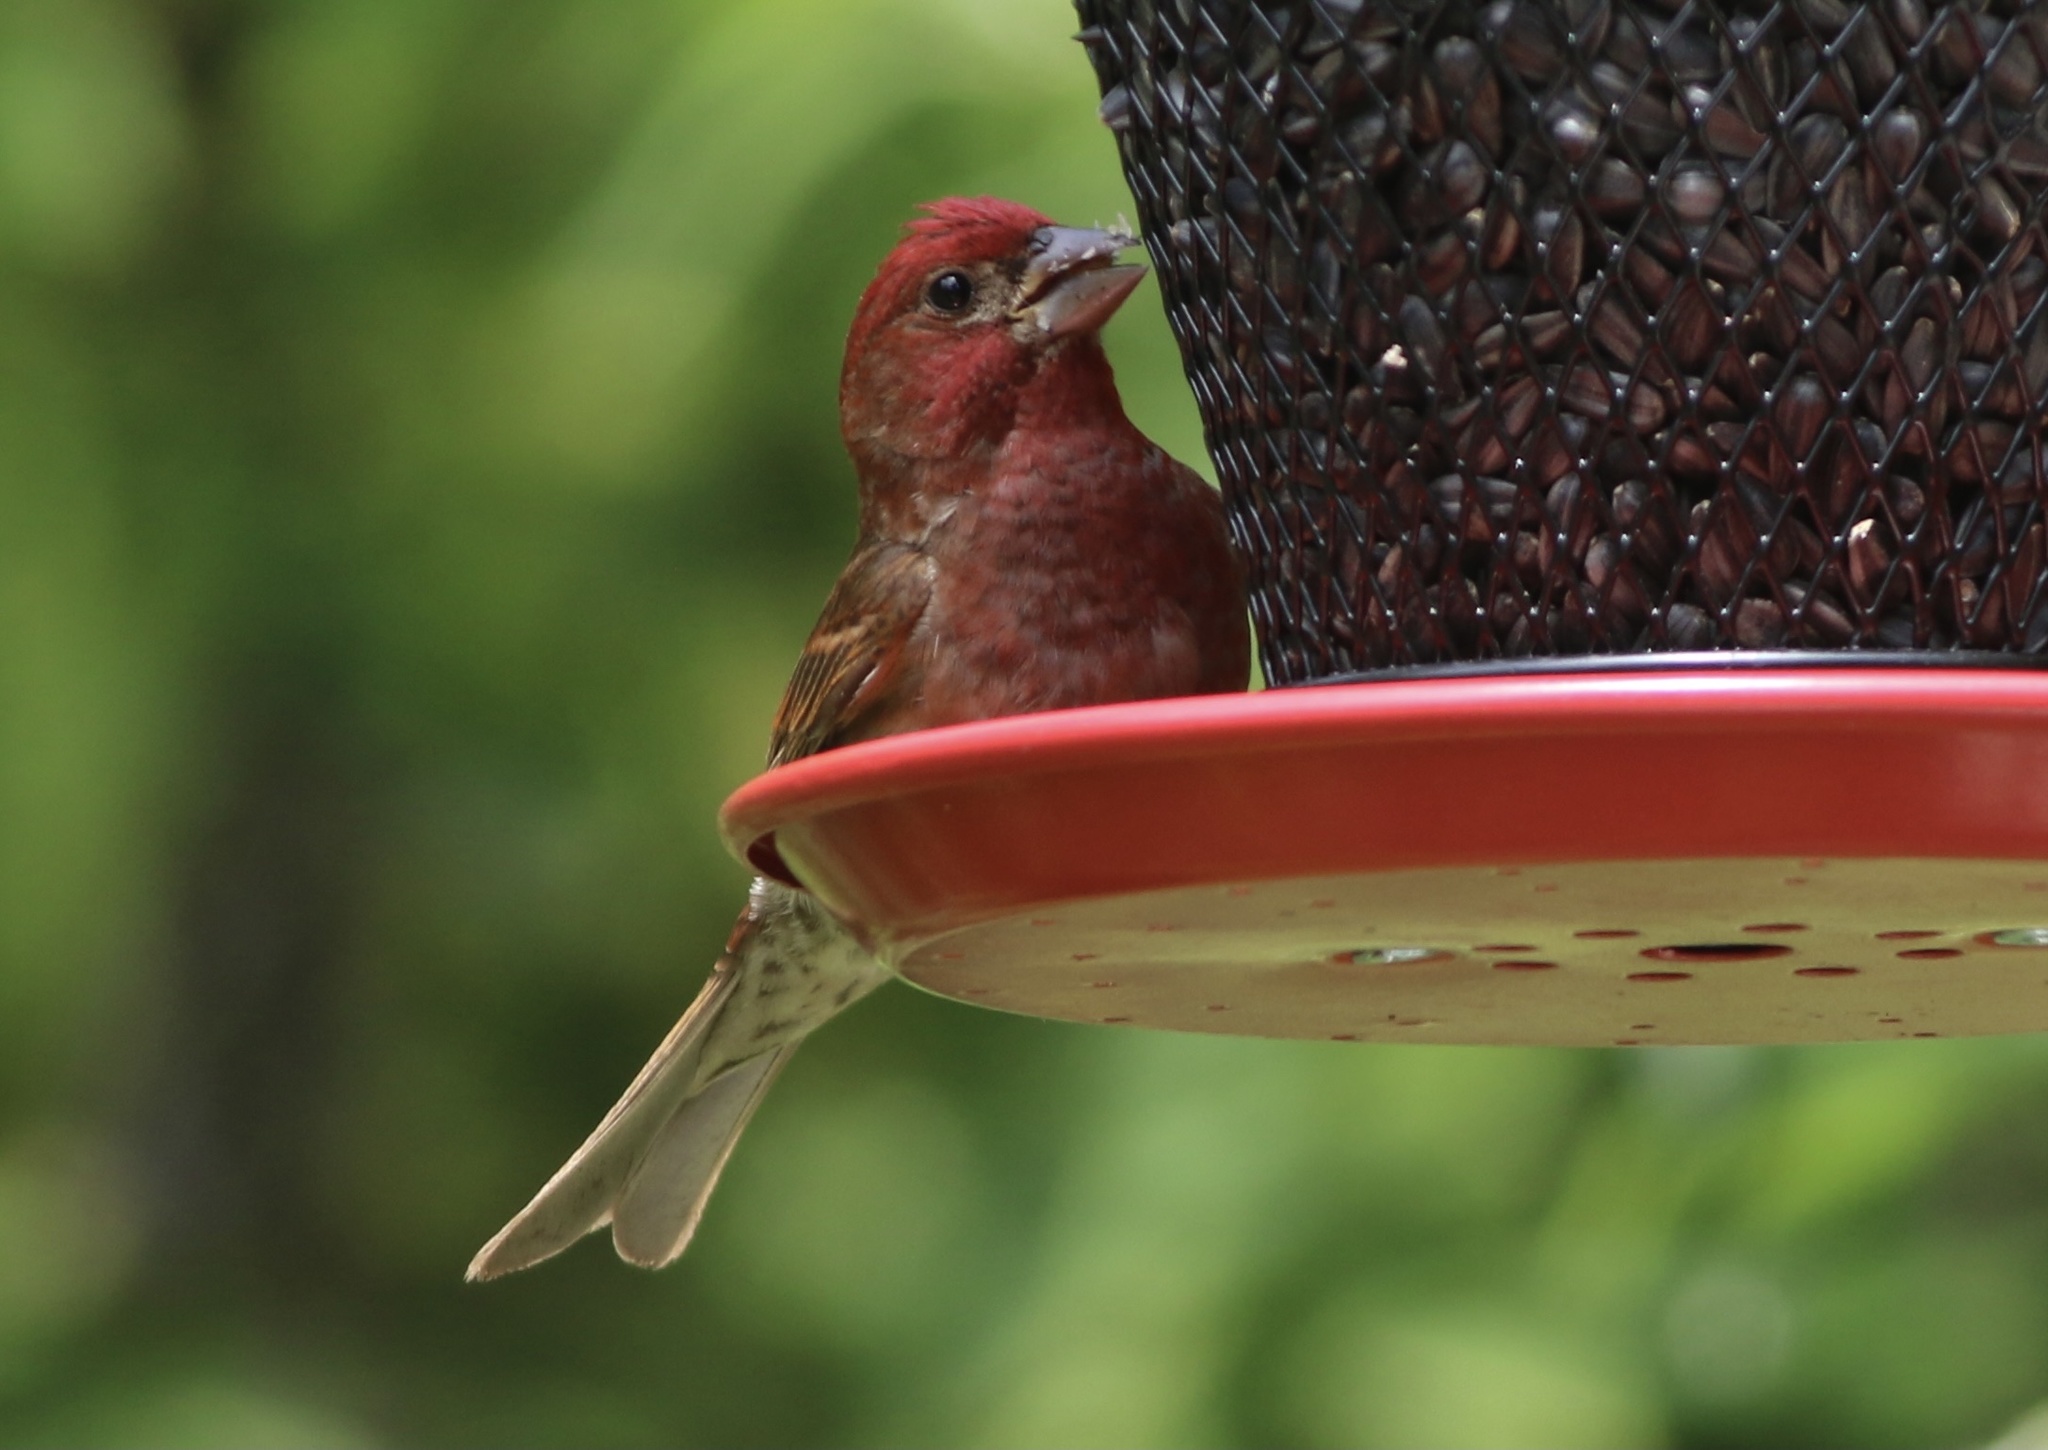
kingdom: Animalia
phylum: Chordata
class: Aves
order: Passeriformes
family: Fringillidae
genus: Haemorhous
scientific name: Haemorhous purpureus
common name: Purple finch
